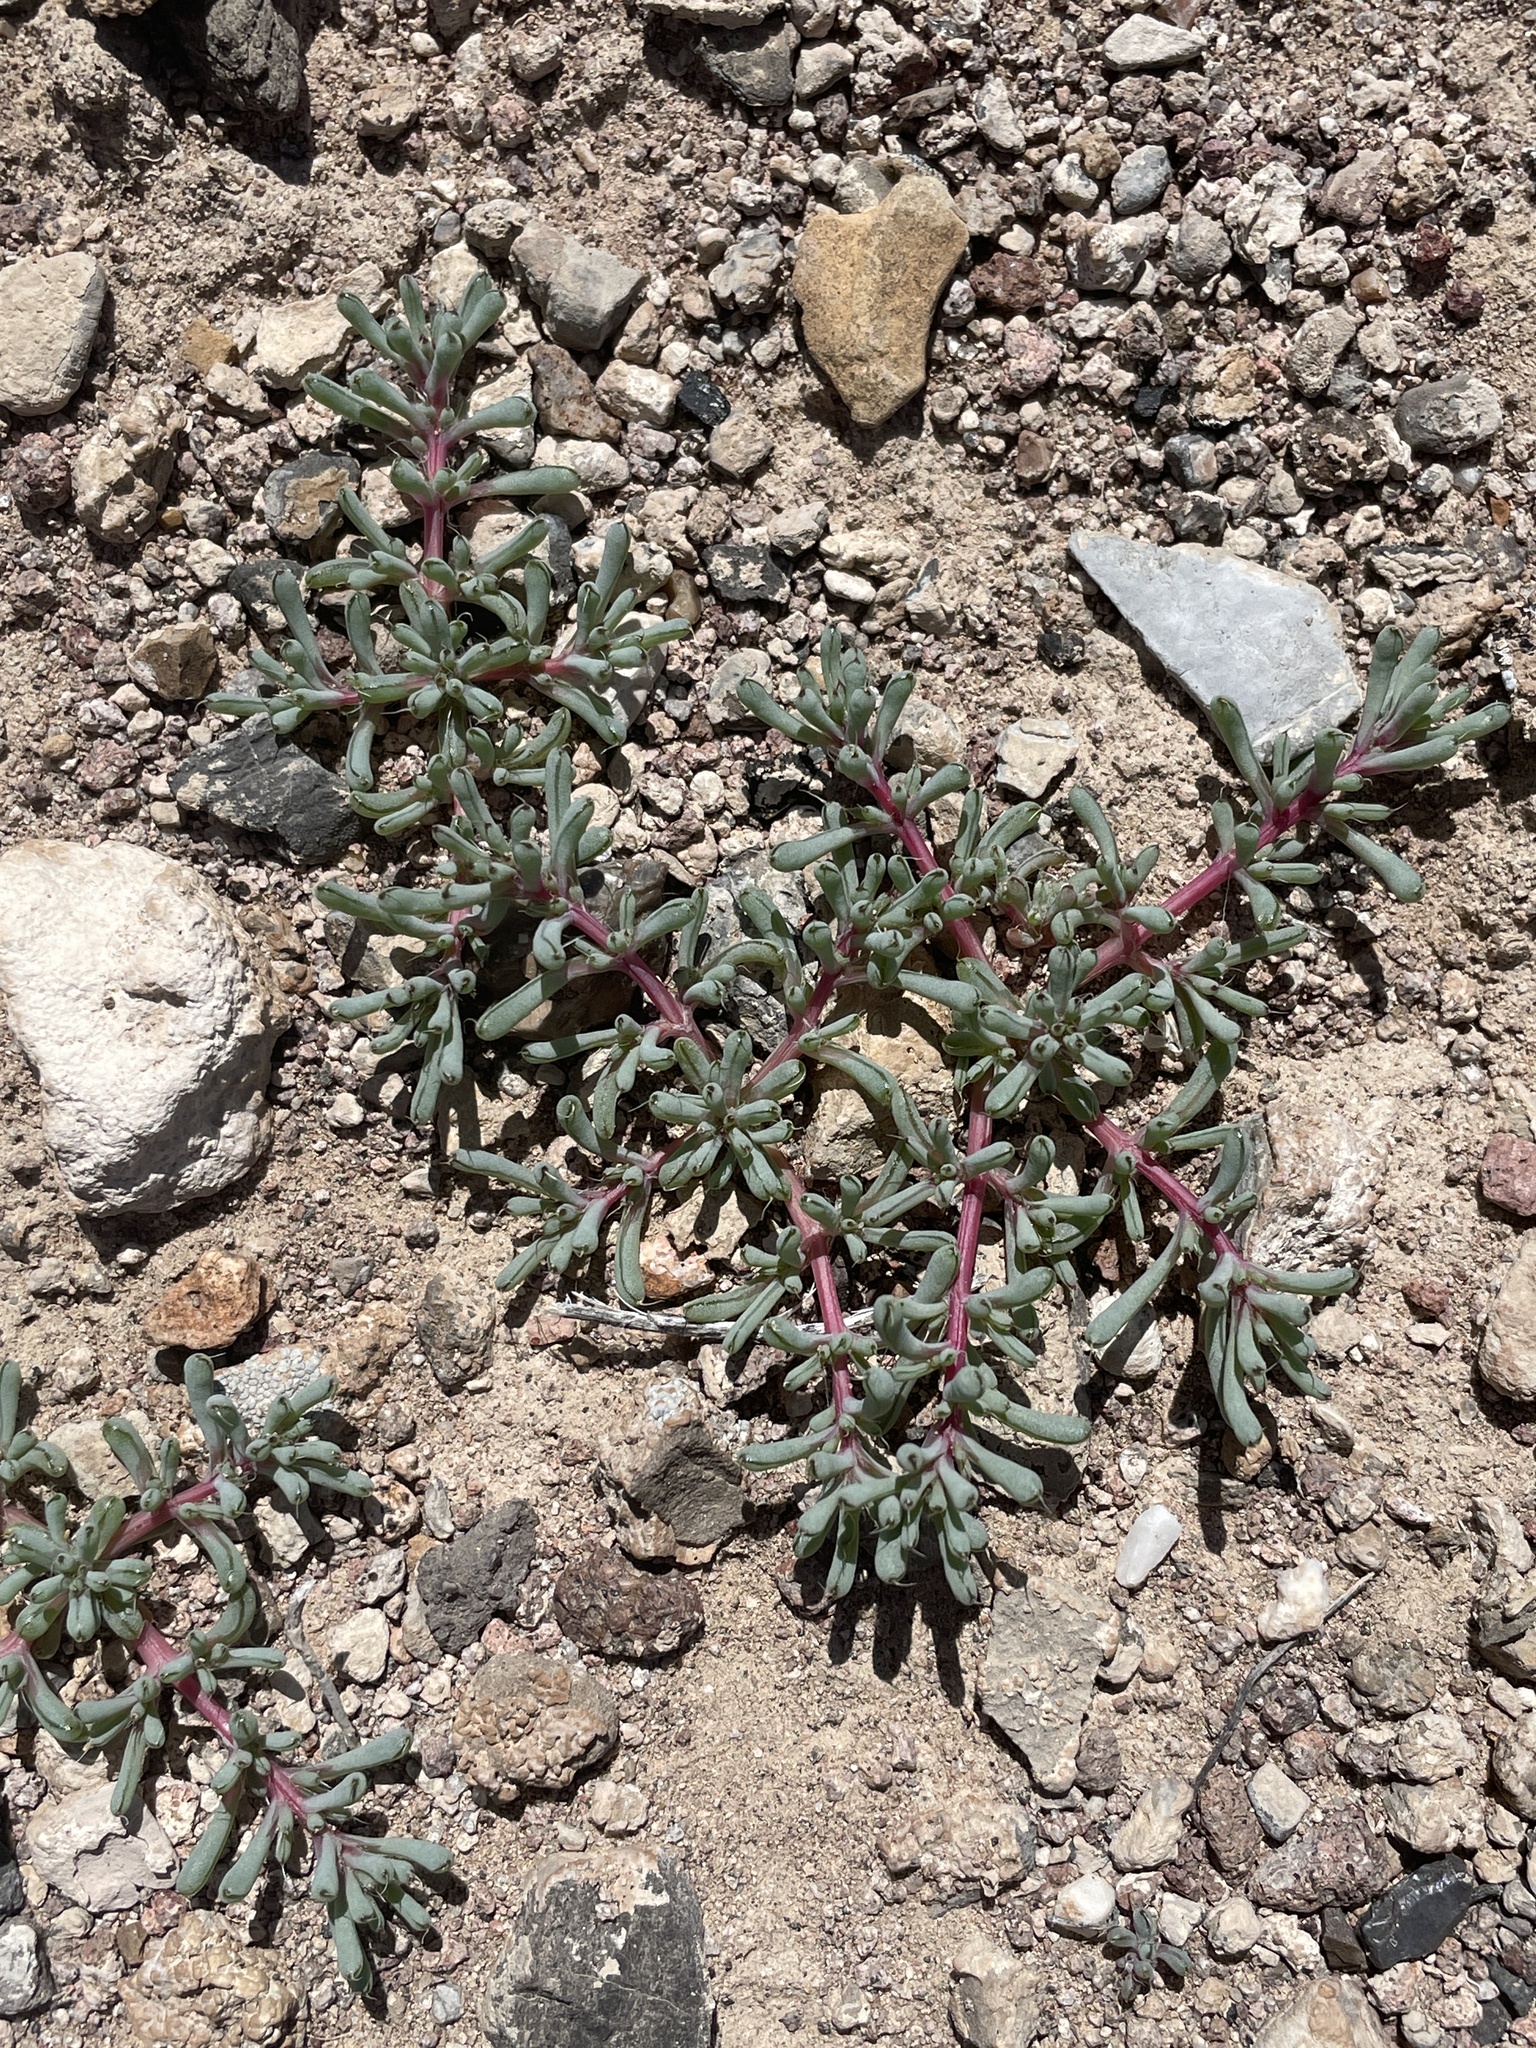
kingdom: Plantae
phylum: Tracheophyta
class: Magnoliopsida
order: Caryophyllales
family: Amaranthaceae
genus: Halogeton
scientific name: Halogeton glomeratus
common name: Saltlover
